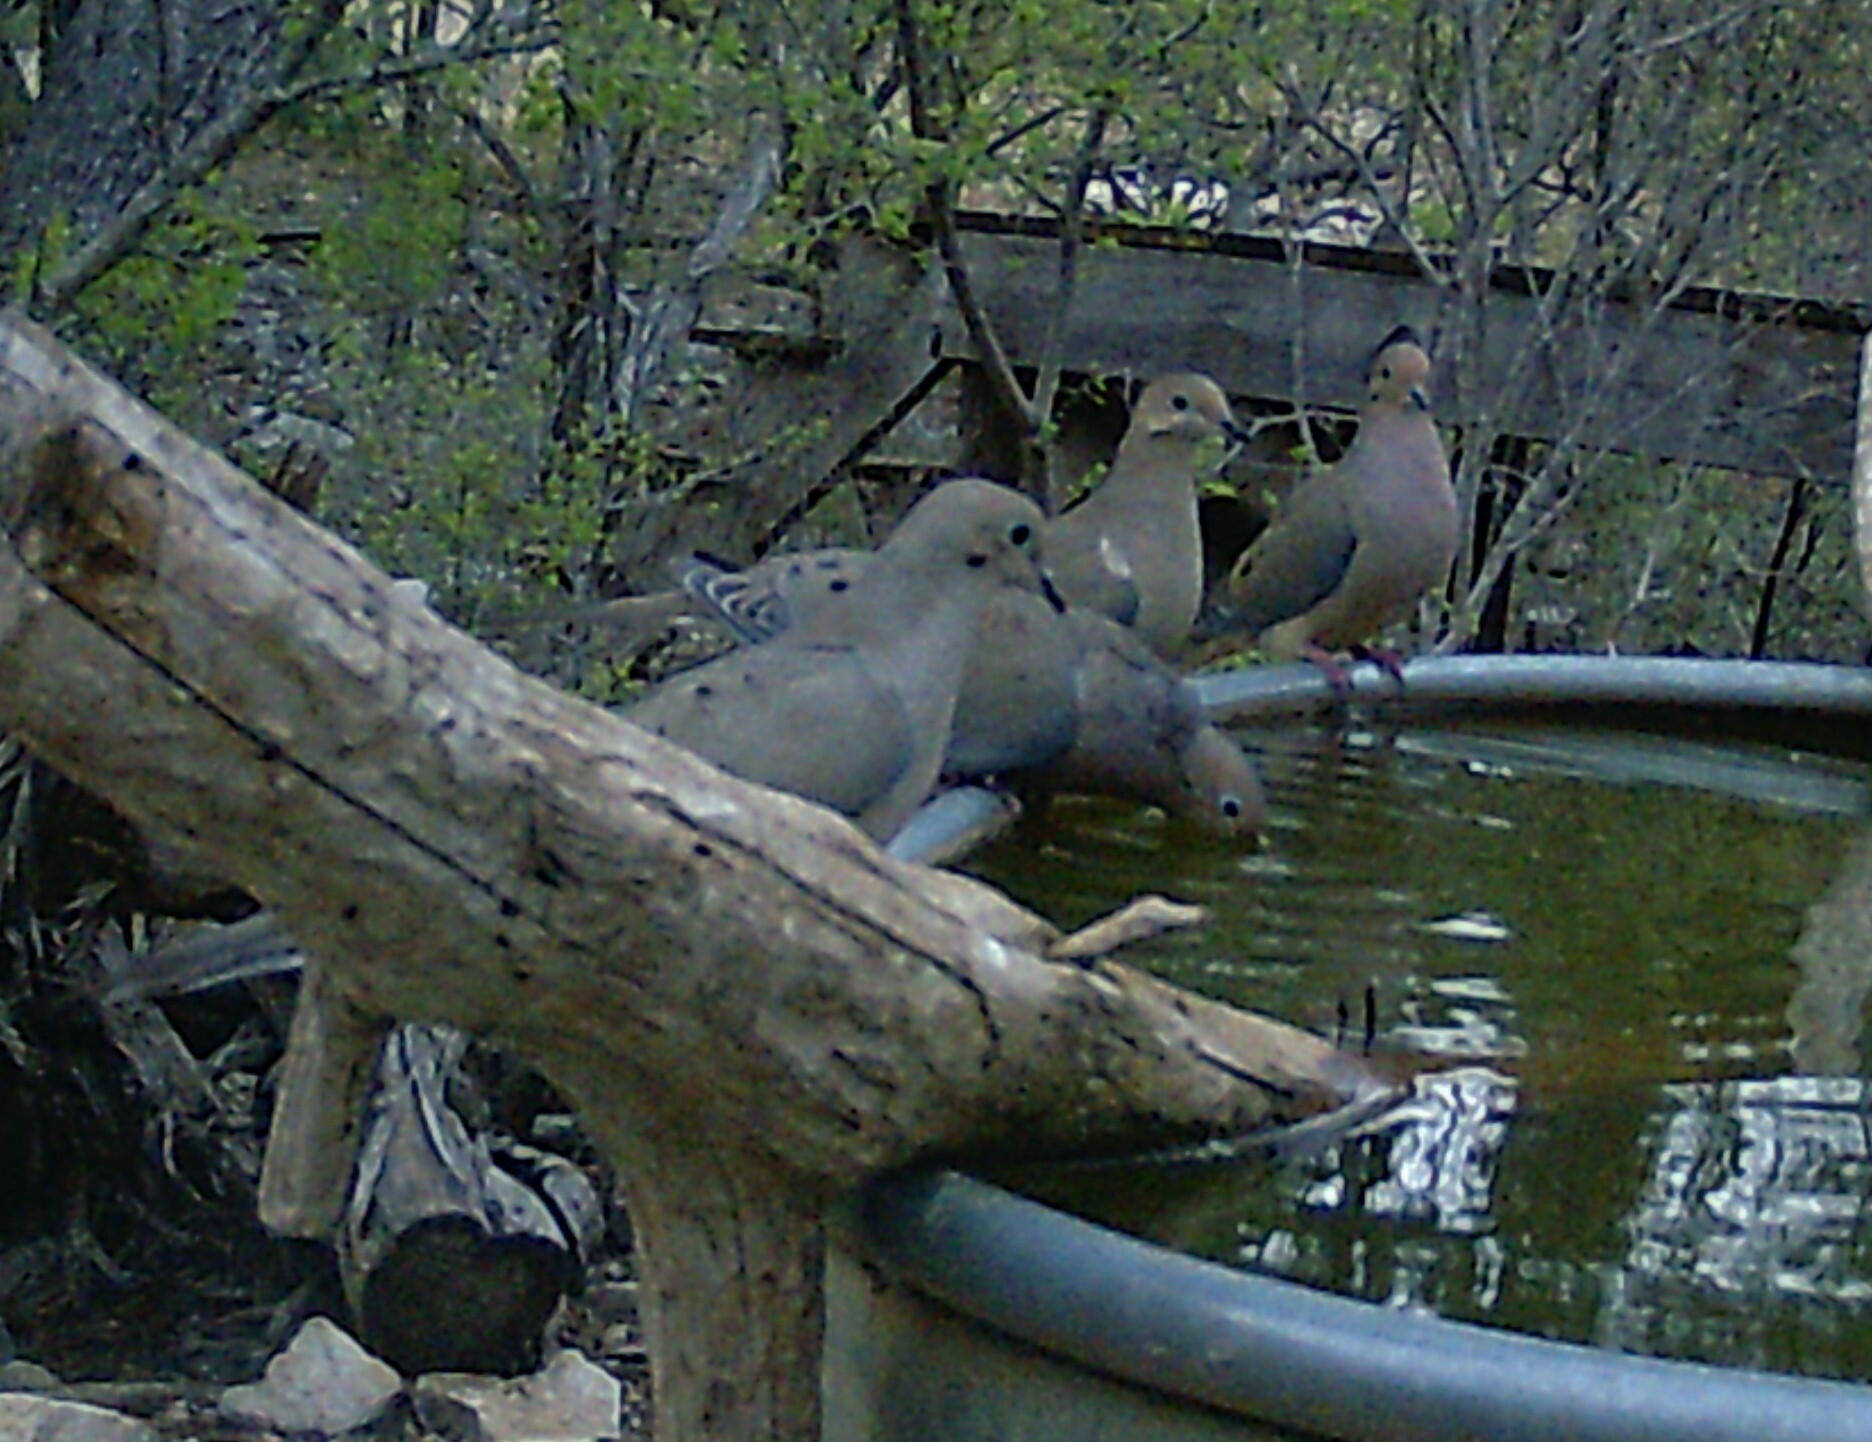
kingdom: Animalia
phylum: Chordata
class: Aves
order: Columbiformes
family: Columbidae
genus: Zenaida
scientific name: Zenaida macroura
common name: Mourning dove
